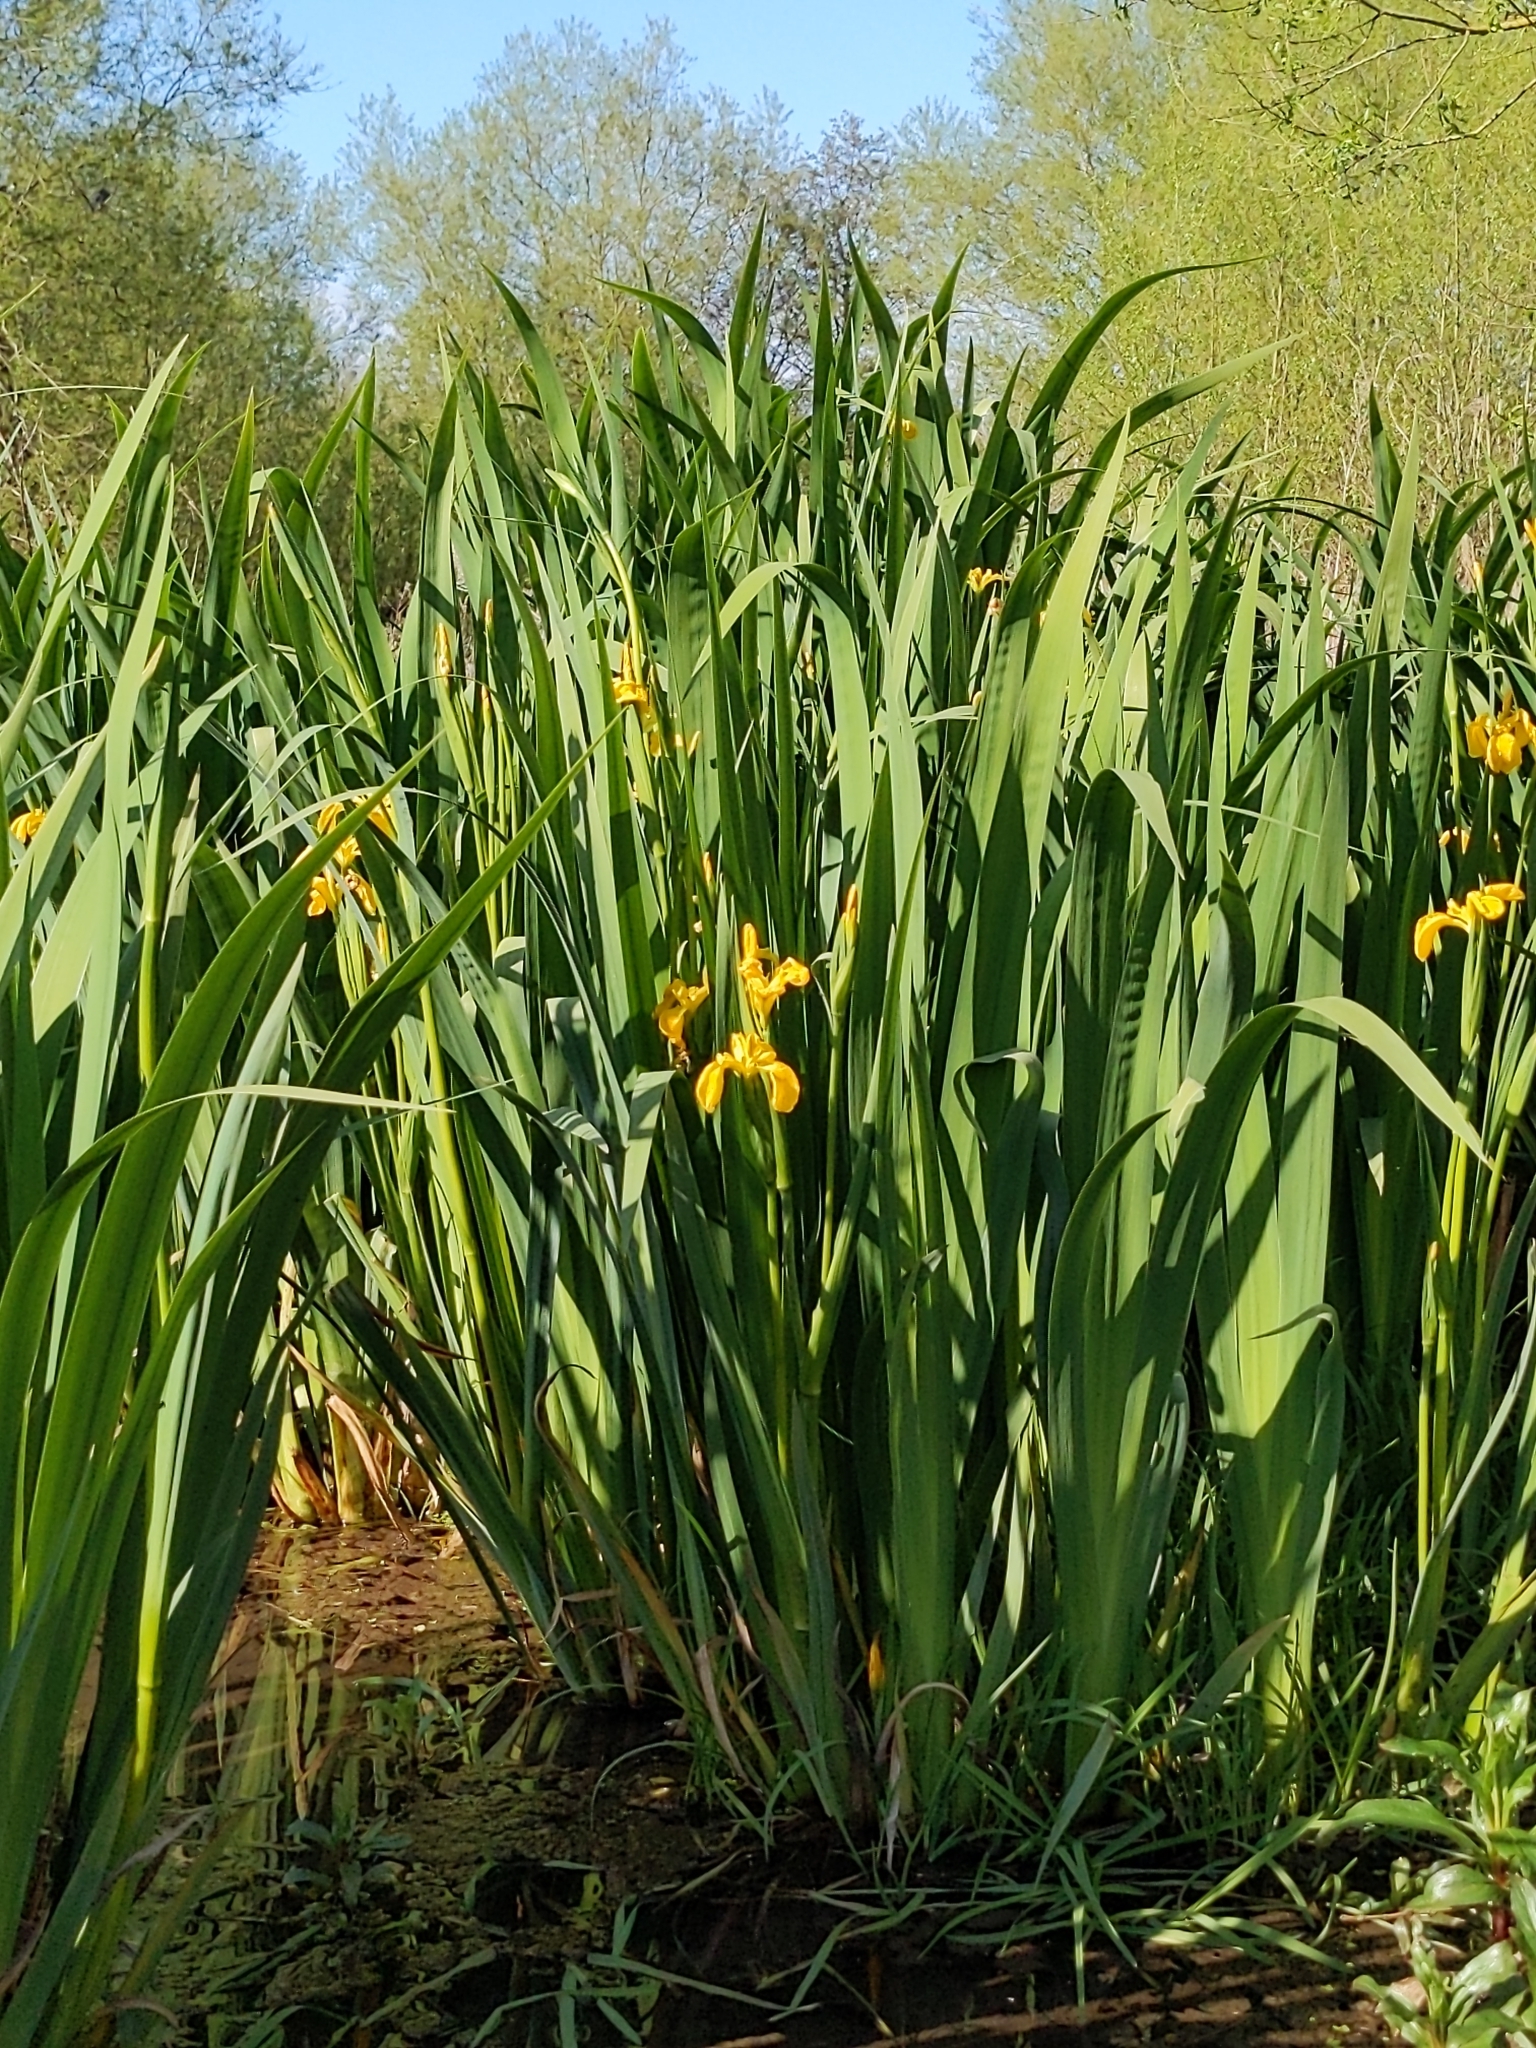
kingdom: Plantae
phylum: Tracheophyta
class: Liliopsida
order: Asparagales
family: Iridaceae
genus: Iris
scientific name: Iris pseudacorus
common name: Yellow flag
